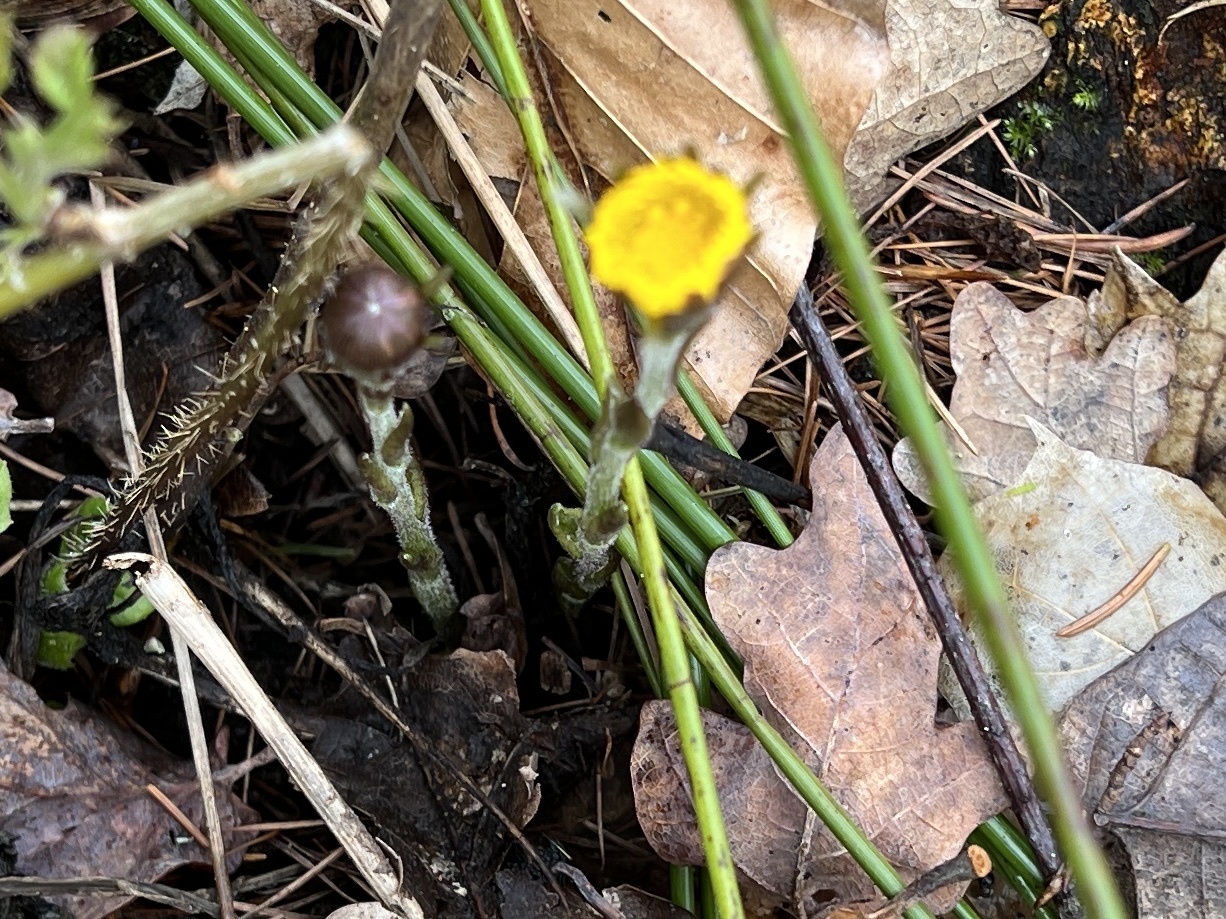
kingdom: Plantae
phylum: Tracheophyta
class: Magnoliopsida
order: Asterales
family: Asteraceae
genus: Tussilago
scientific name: Tussilago farfara
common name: Coltsfoot
